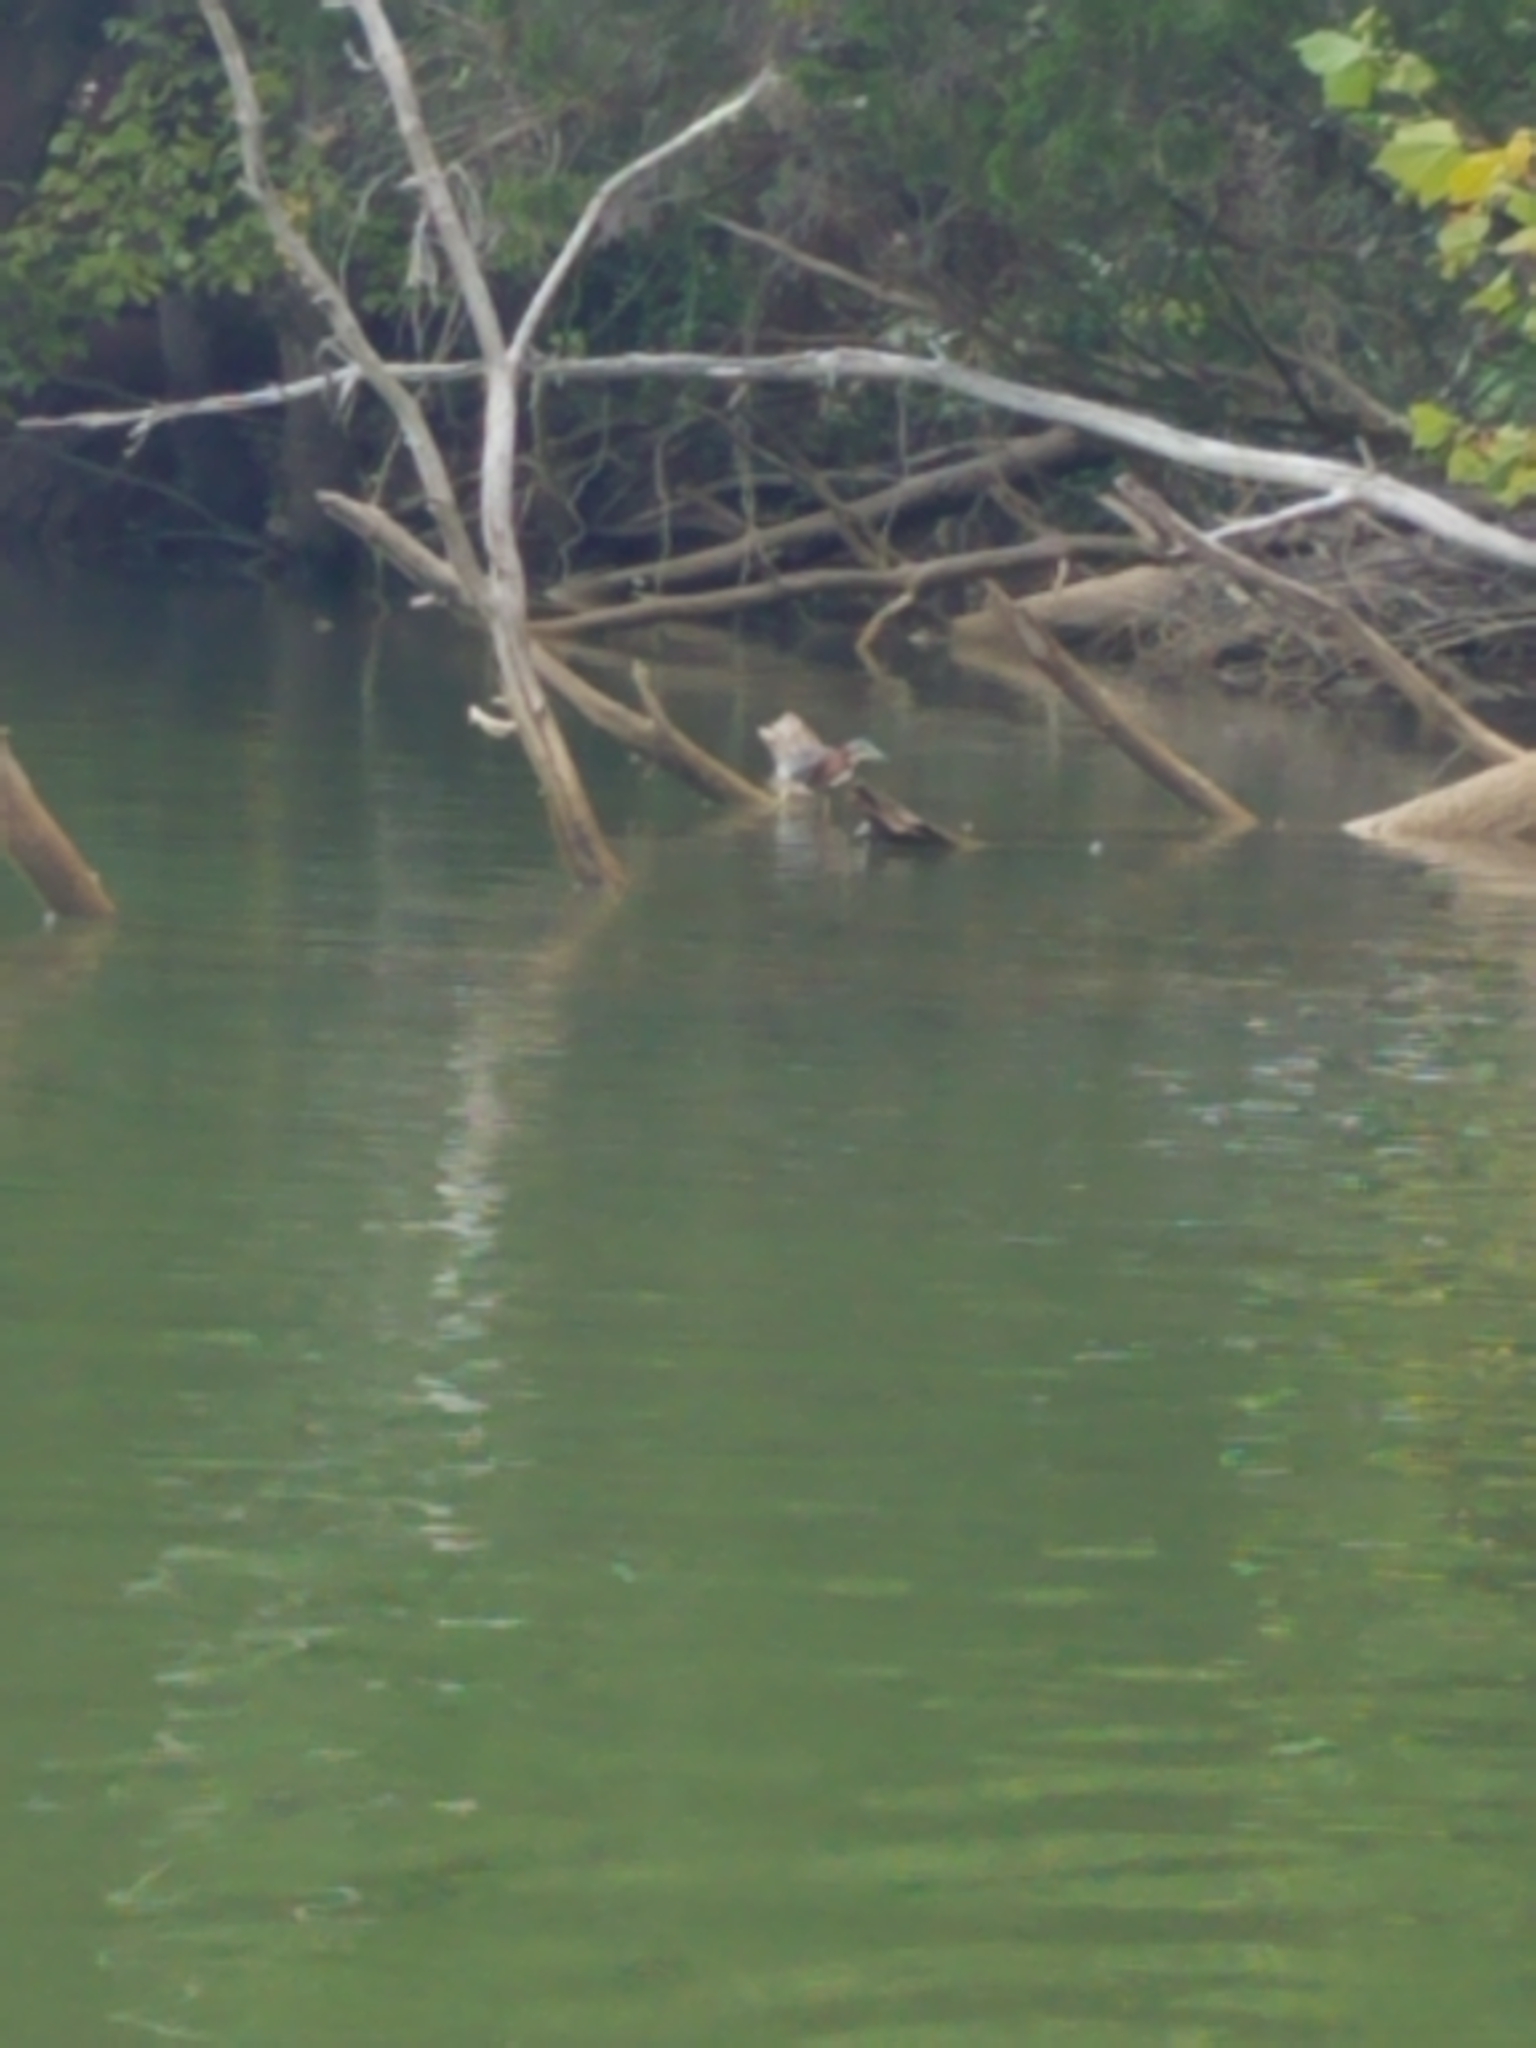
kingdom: Animalia
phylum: Chordata
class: Aves
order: Pelecaniformes
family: Ardeidae
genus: Butorides
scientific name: Butorides virescens
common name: Green heron
